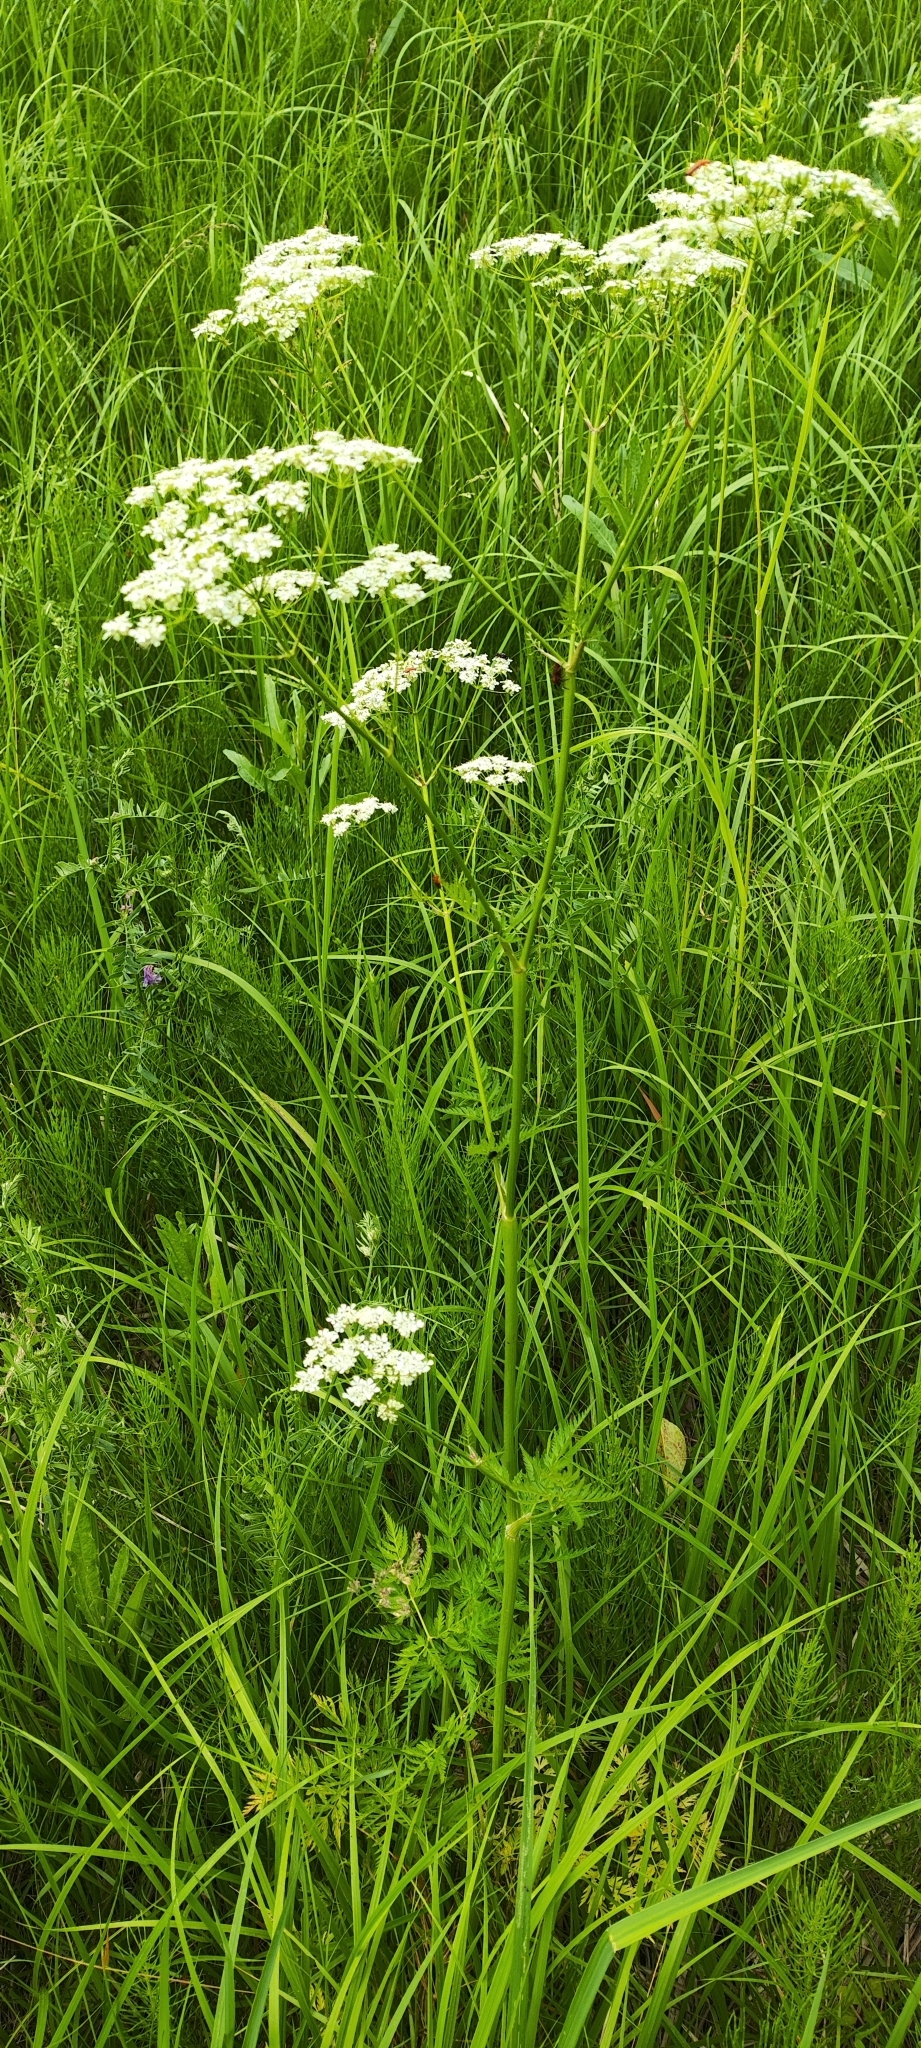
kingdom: Plantae
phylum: Tracheophyta
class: Magnoliopsida
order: Apiales
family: Apiaceae
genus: Anthriscus
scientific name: Anthriscus sylvestris
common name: Cow parsley
